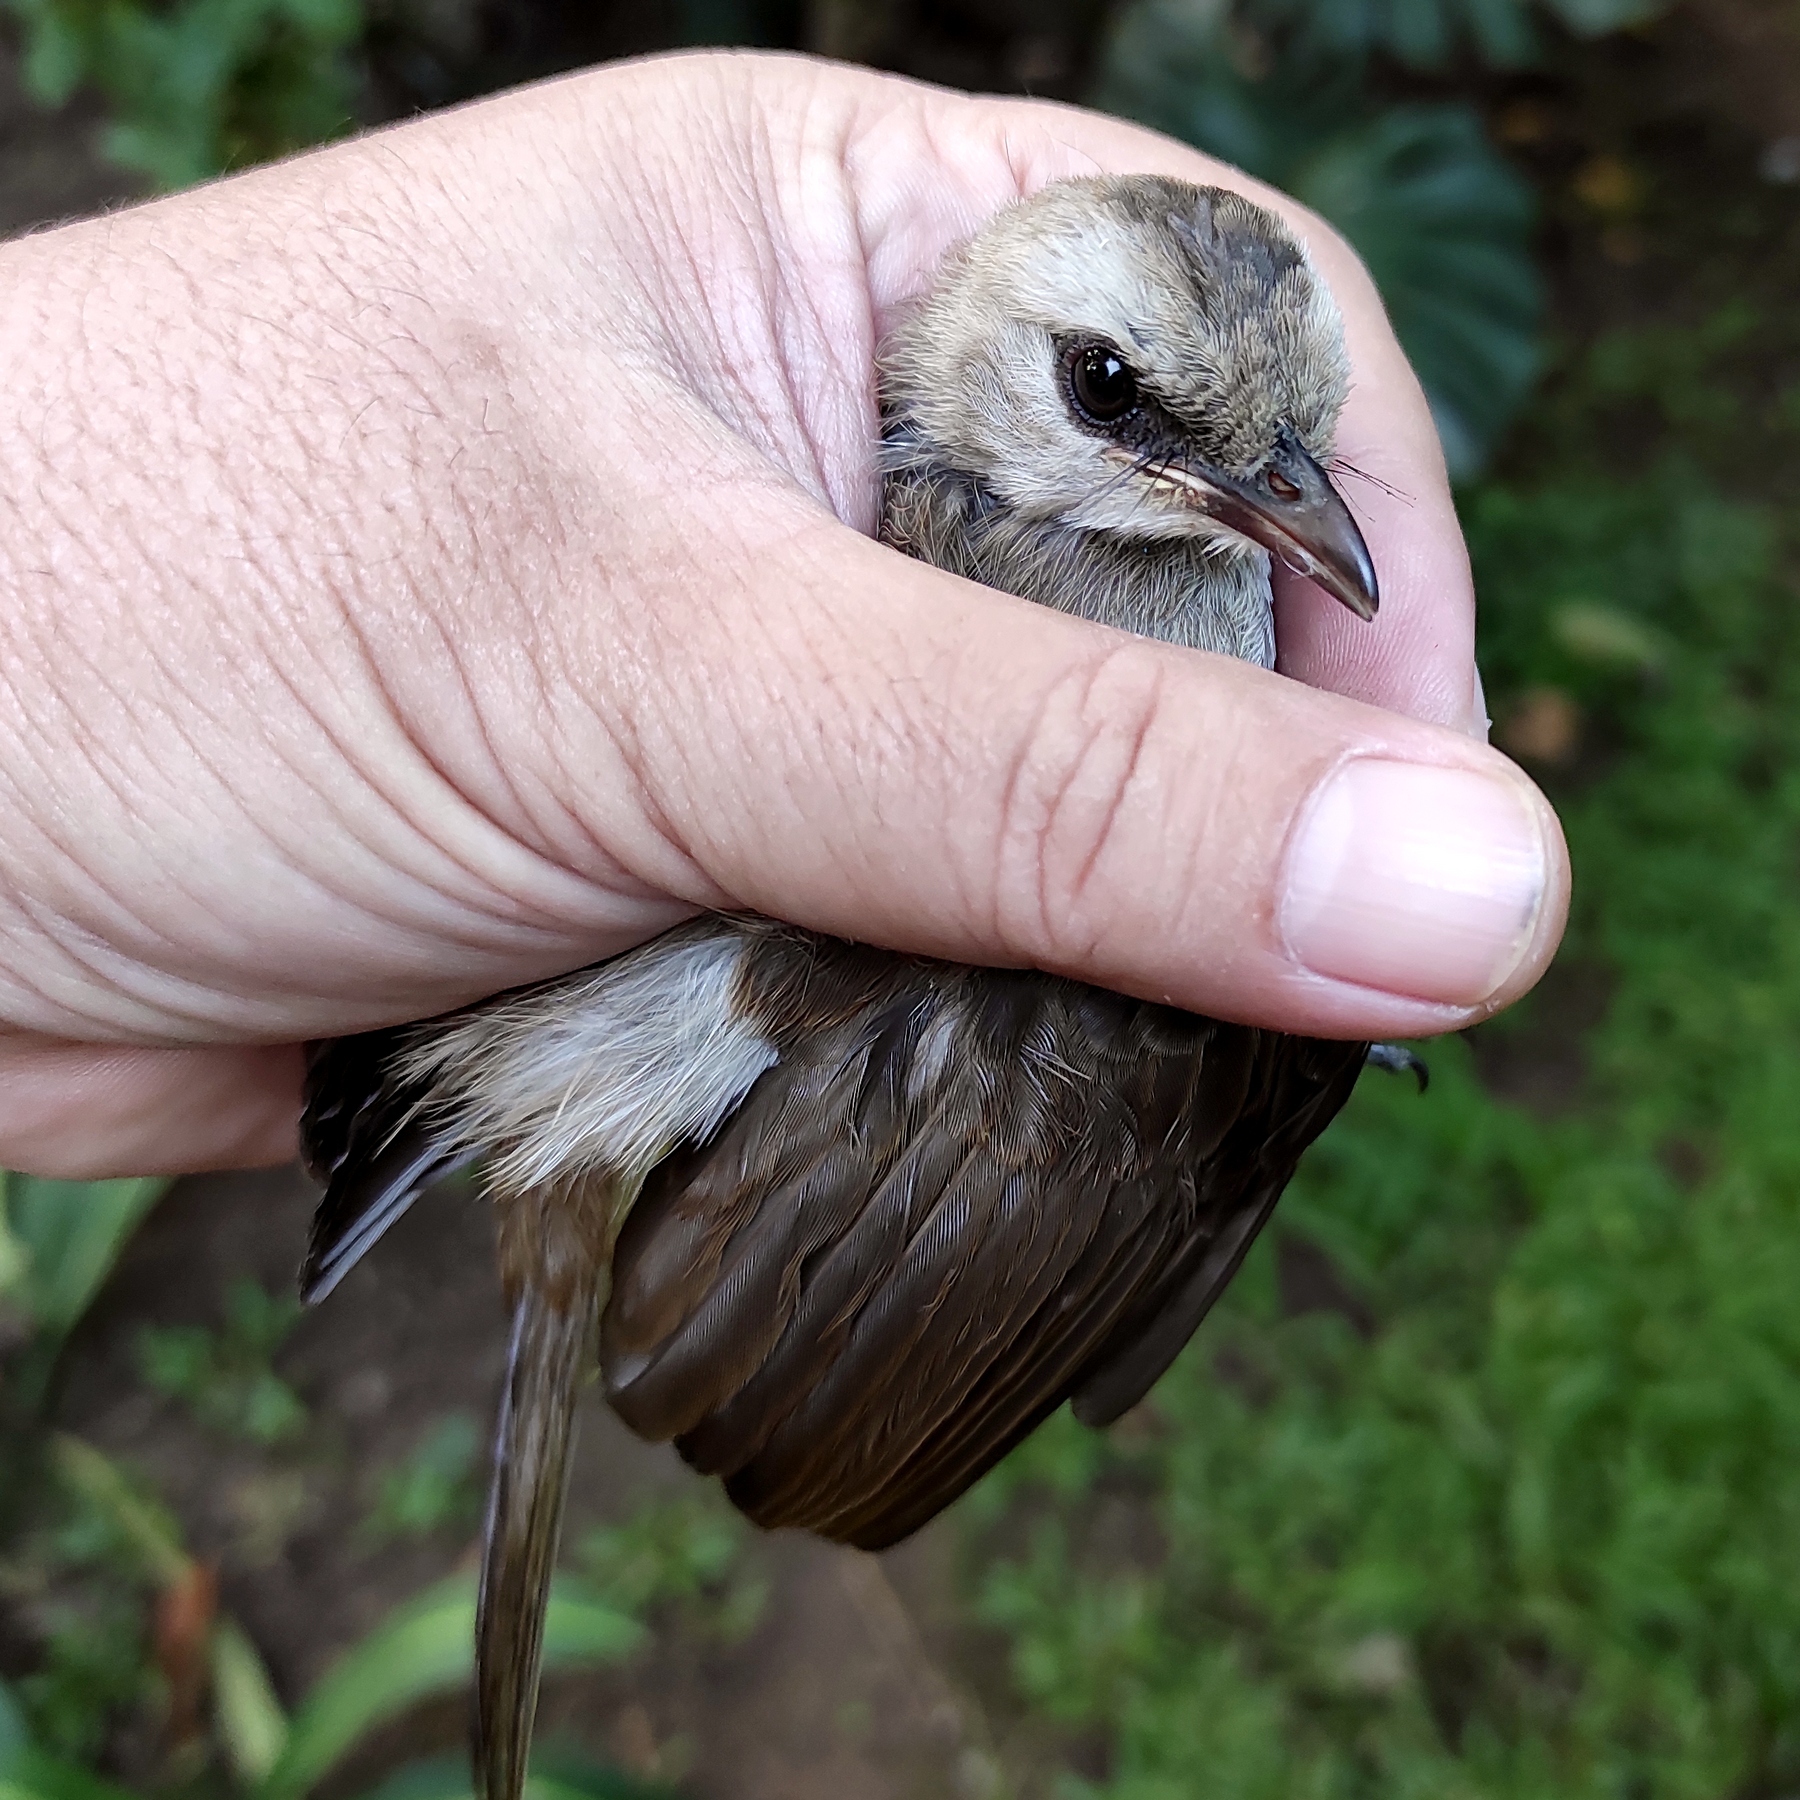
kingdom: Animalia
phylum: Chordata
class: Aves
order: Passeriformes
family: Pycnonotidae
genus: Pycnonotus
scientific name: Pycnonotus goiavier
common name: Yellow-vented bulbul
